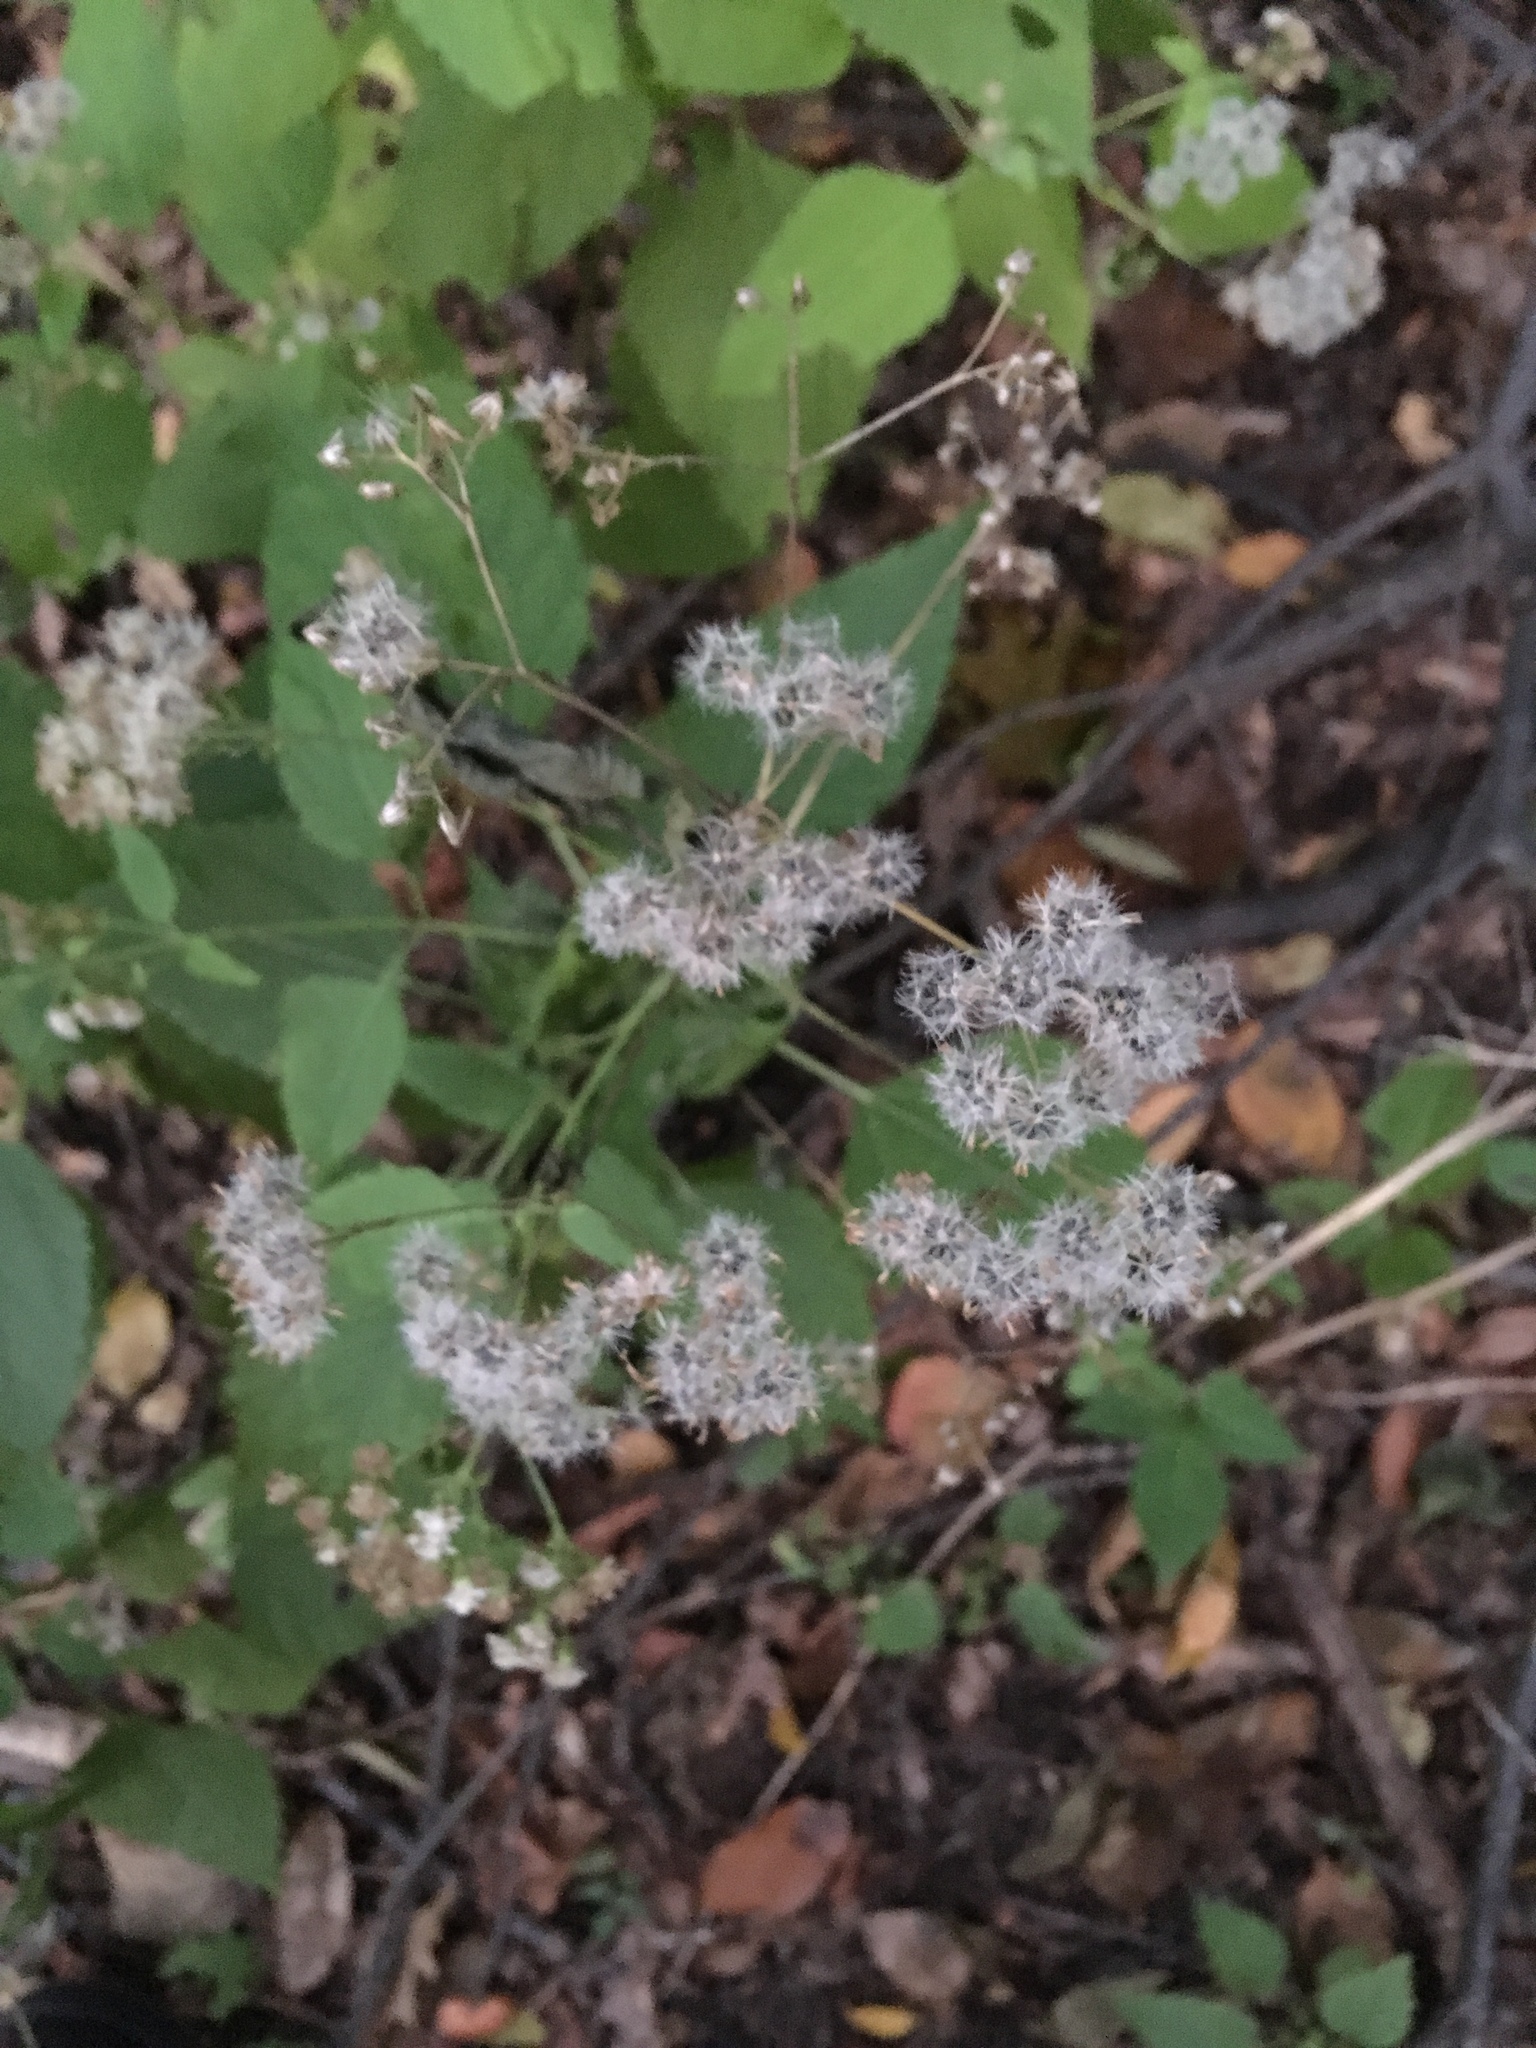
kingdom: Plantae
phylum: Tracheophyta
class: Magnoliopsida
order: Asterales
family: Asteraceae
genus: Ageratina
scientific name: Ageratina altissima
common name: White snakeroot
